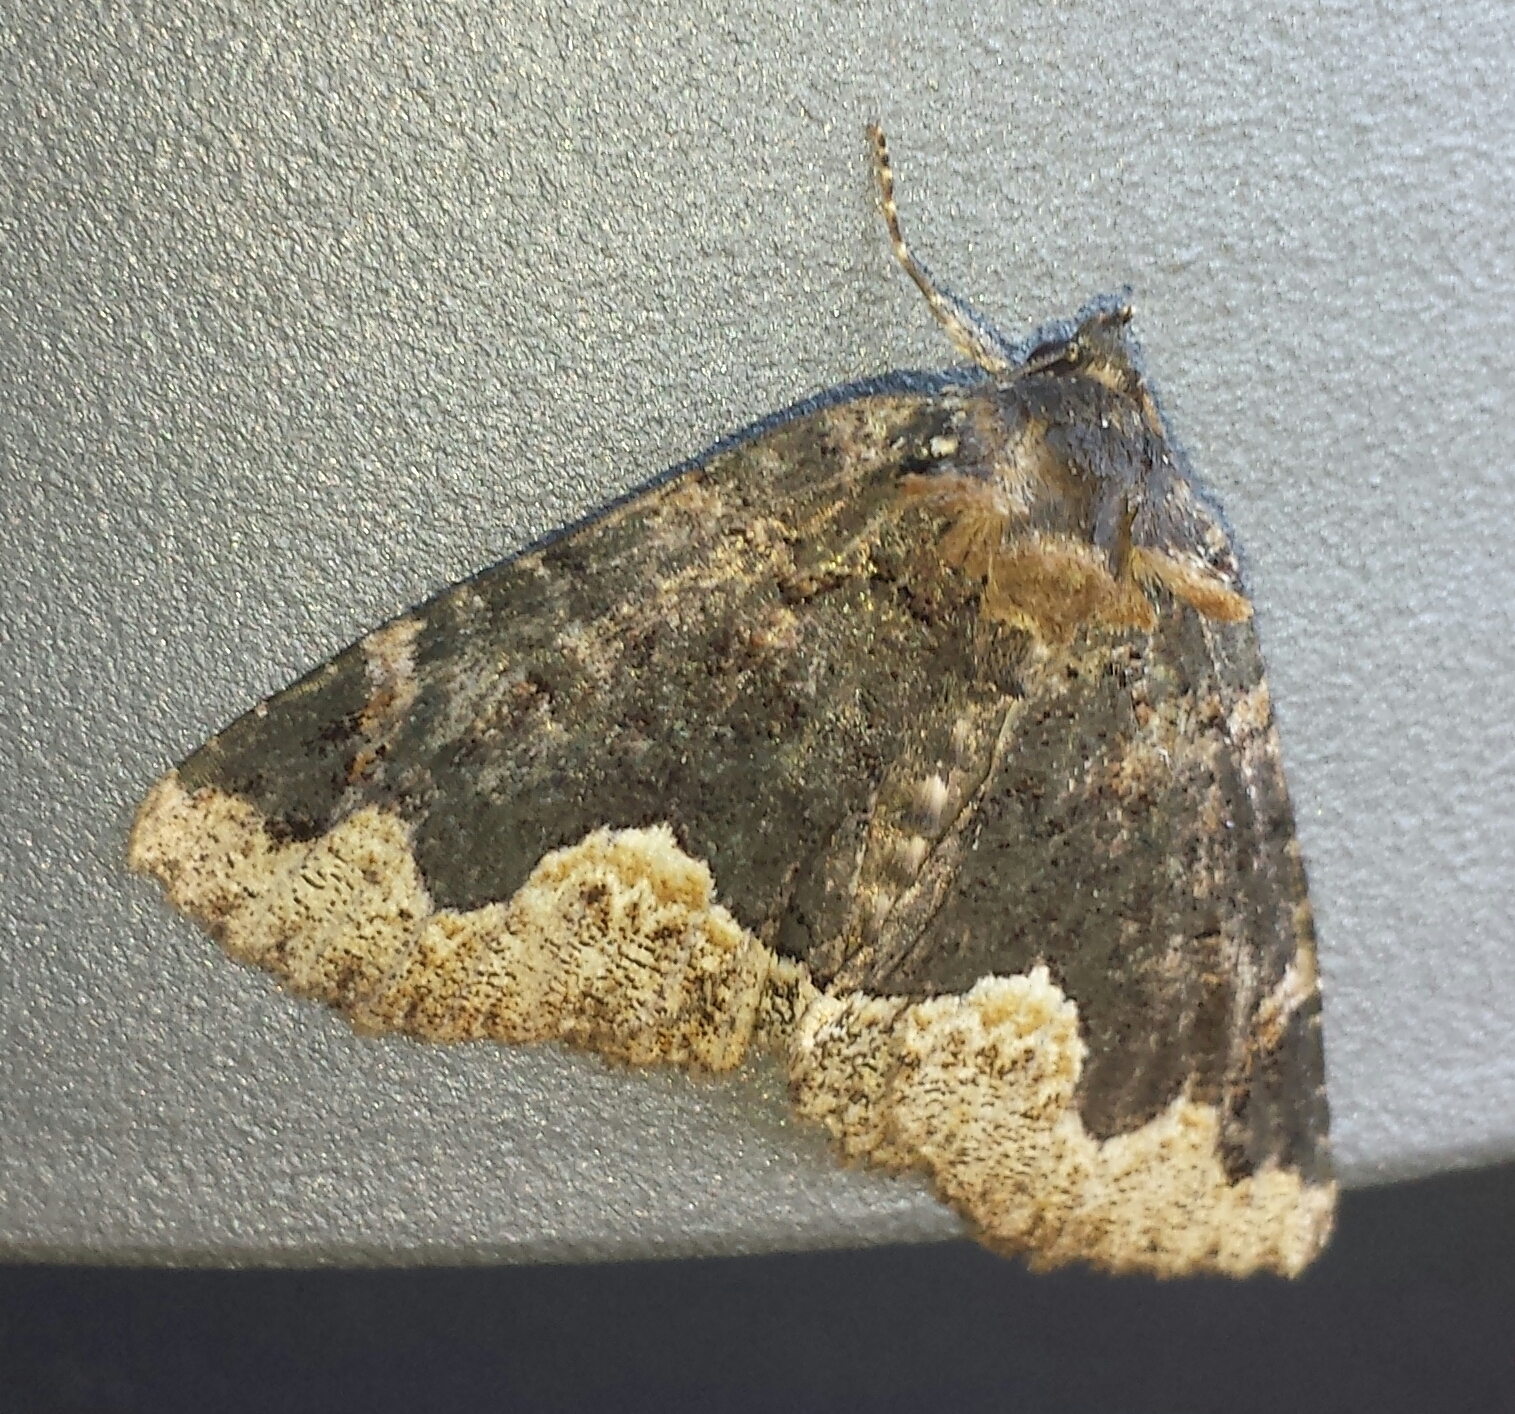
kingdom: Animalia
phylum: Arthropoda
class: Insecta
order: Lepidoptera
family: Erebidae
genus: Zale
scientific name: Zale horrida
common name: Horrid zale moth
